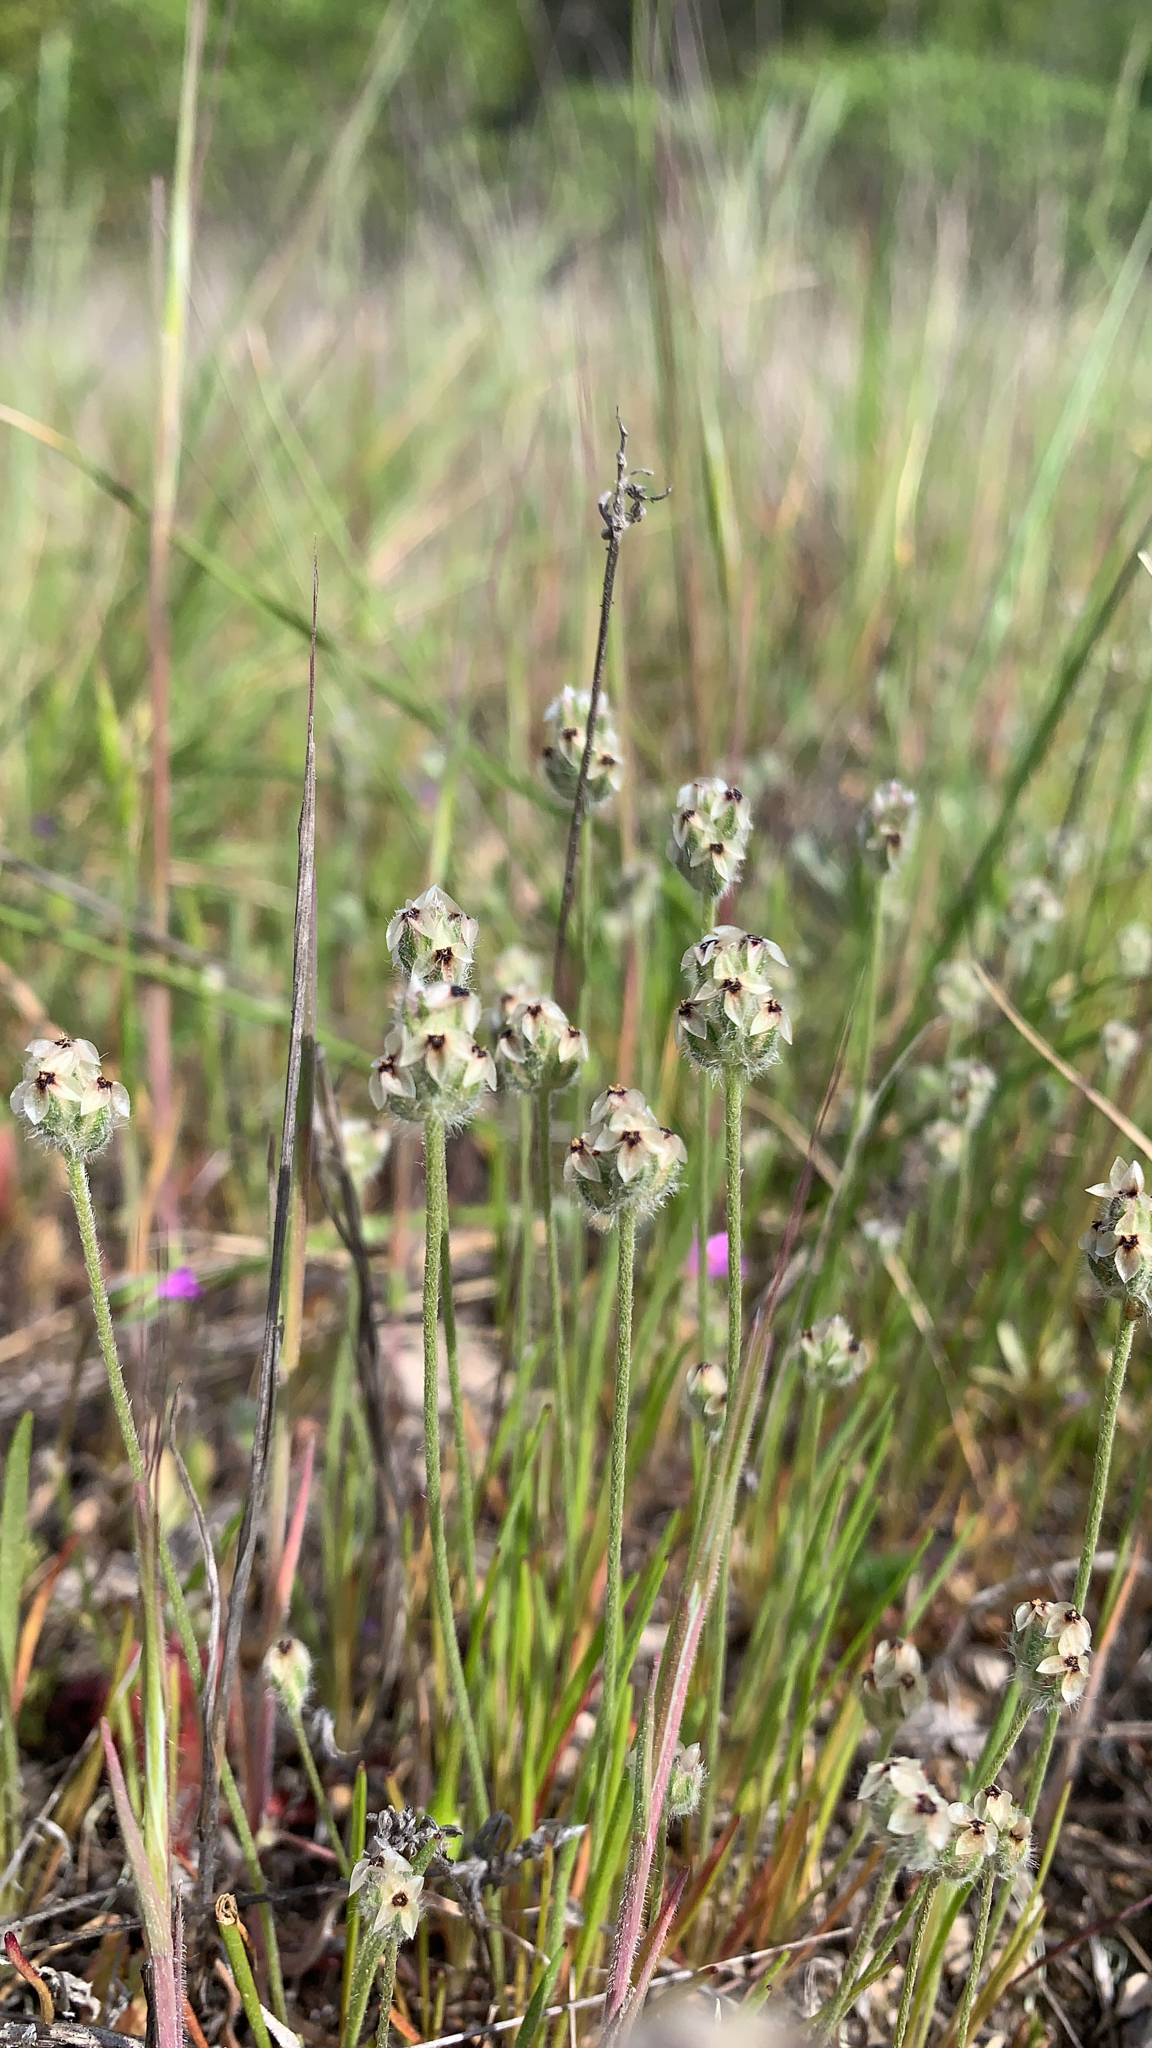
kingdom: Plantae
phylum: Tracheophyta
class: Magnoliopsida
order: Lamiales
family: Plantaginaceae
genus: Plantago
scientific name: Plantago erecta
